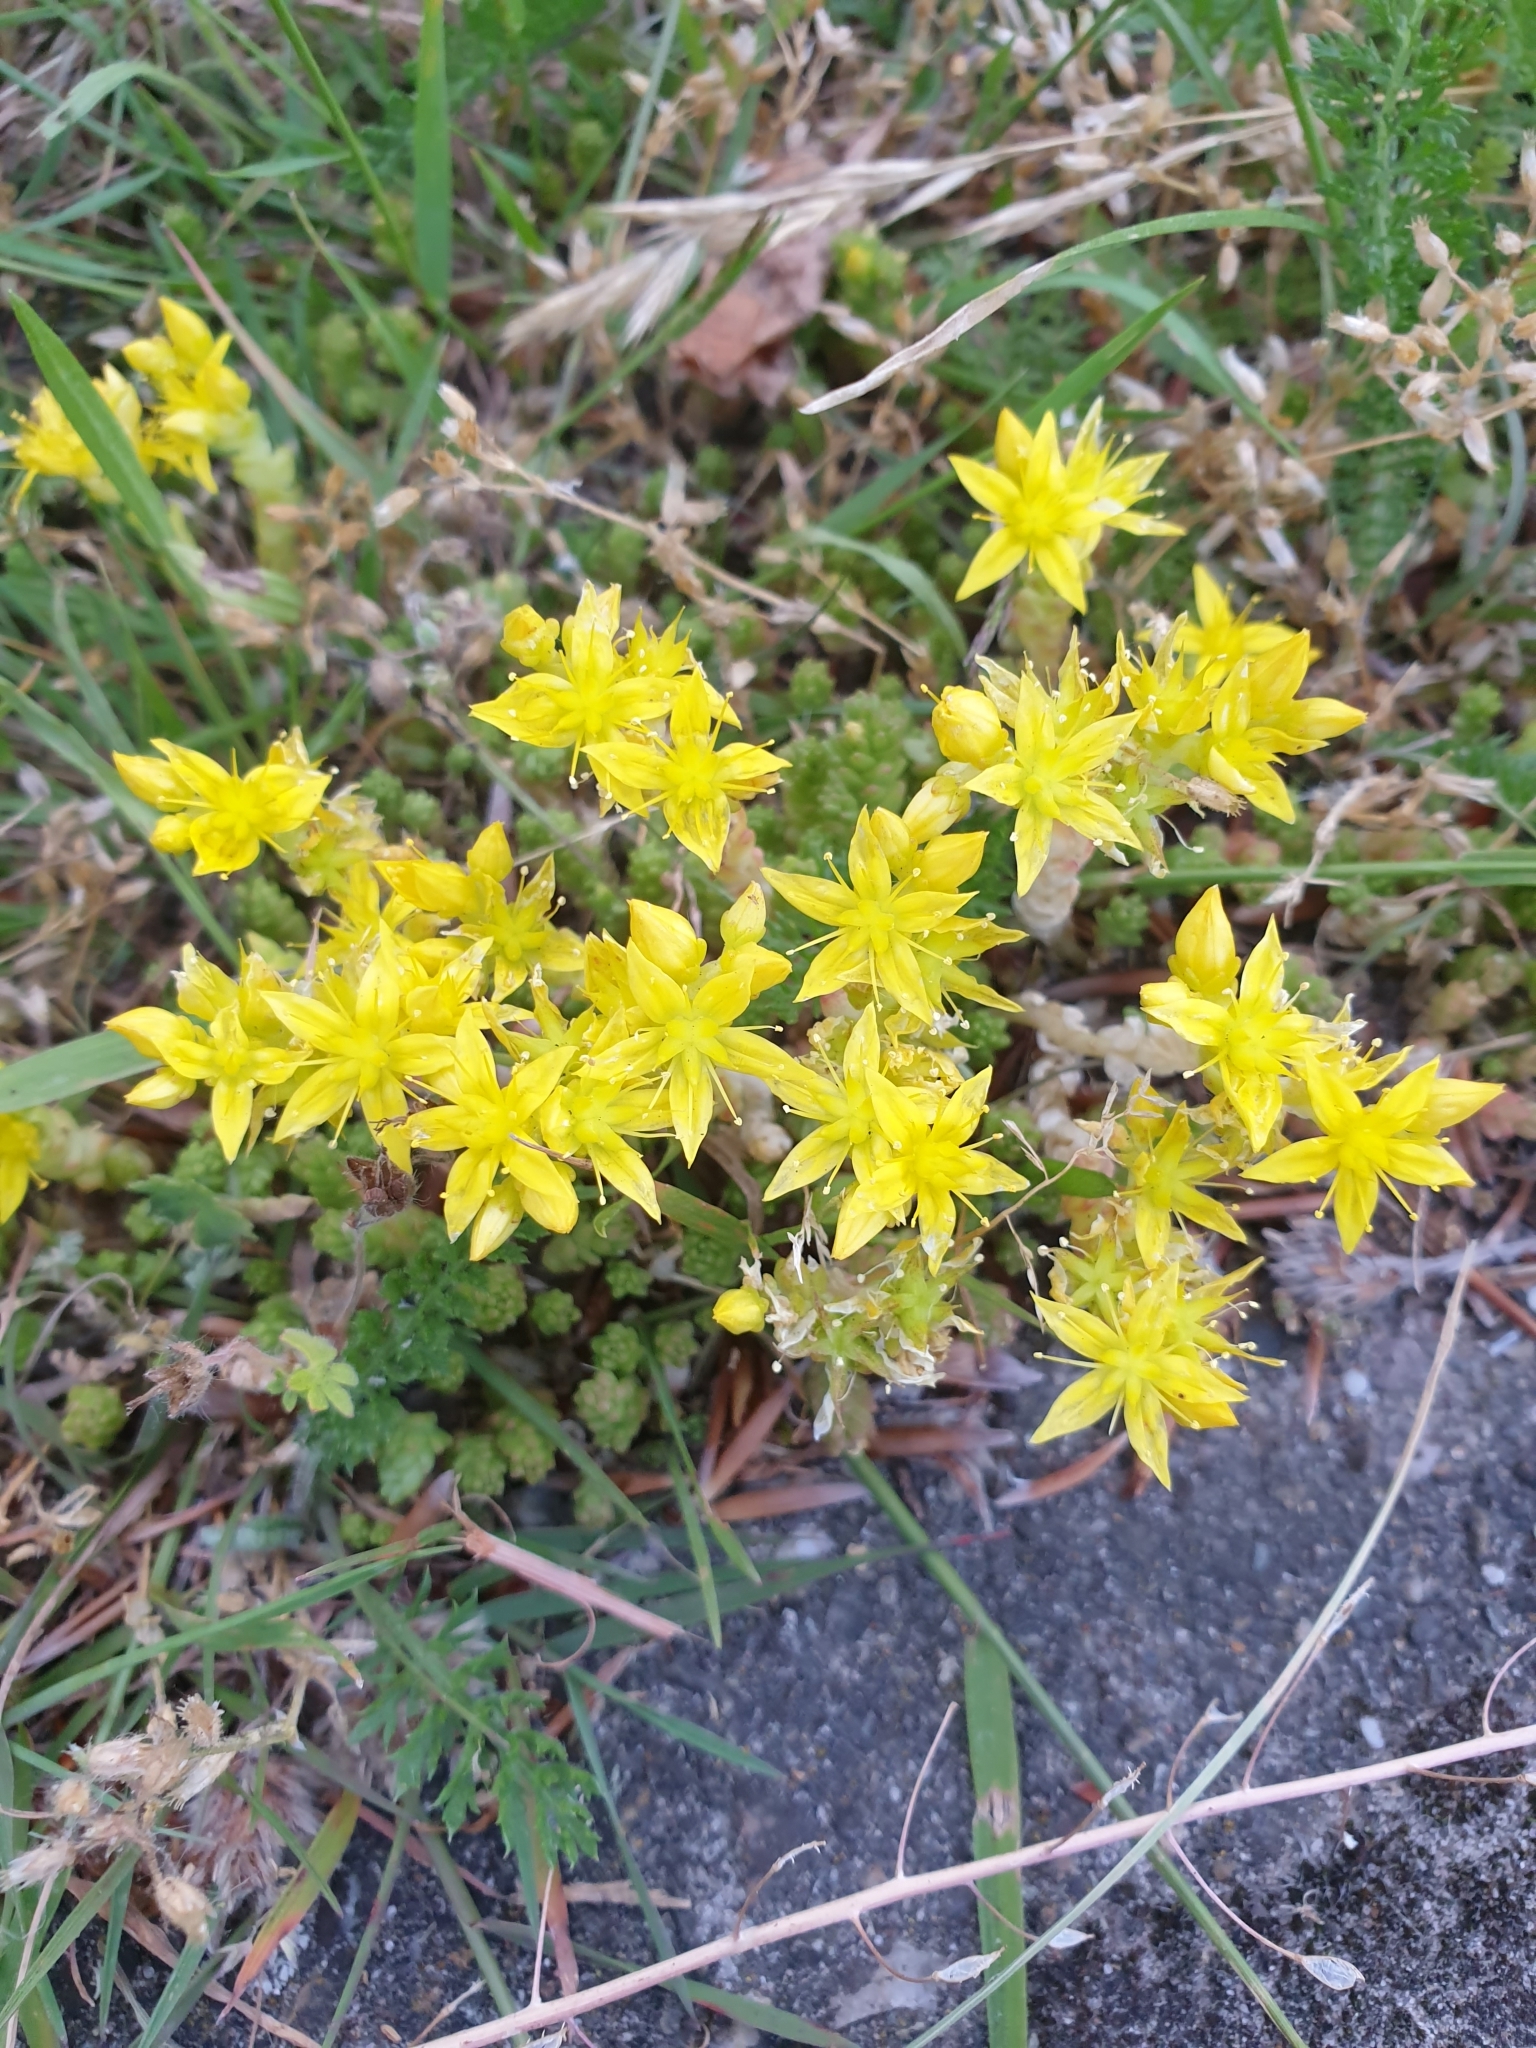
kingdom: Plantae
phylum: Tracheophyta
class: Magnoliopsida
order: Saxifragales
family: Crassulaceae
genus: Sedum
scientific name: Sedum acre
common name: Biting stonecrop
